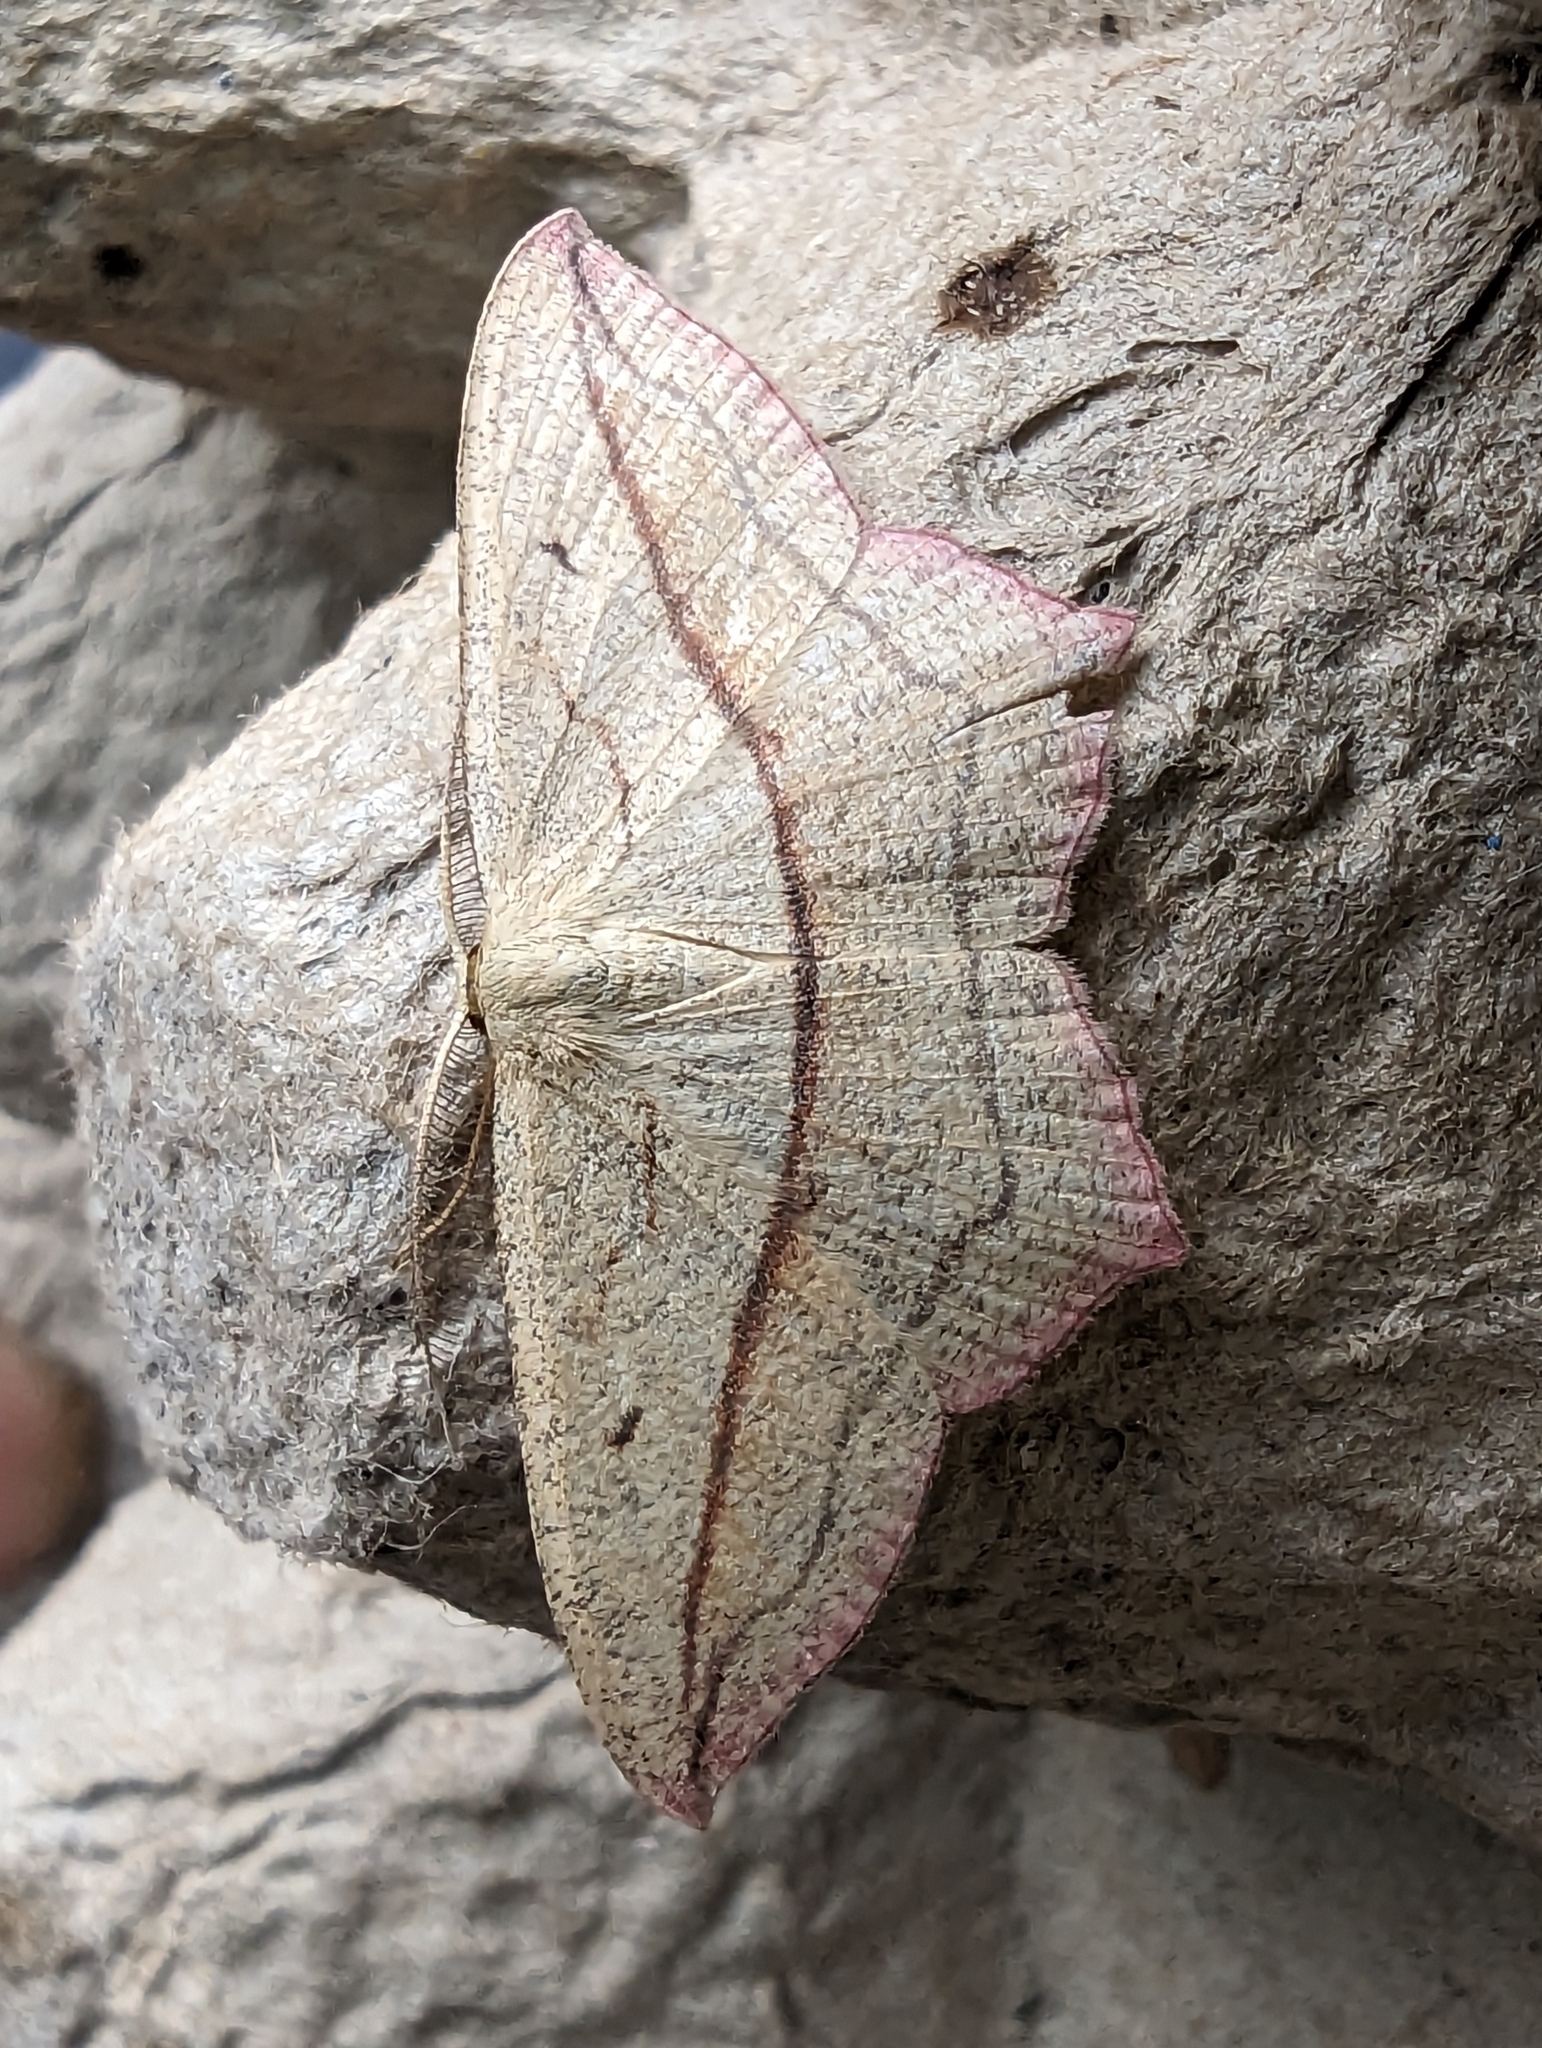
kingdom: Animalia
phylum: Arthropoda
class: Insecta
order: Lepidoptera
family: Geometridae
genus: Timandra
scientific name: Timandra comae
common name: Blood-vein
